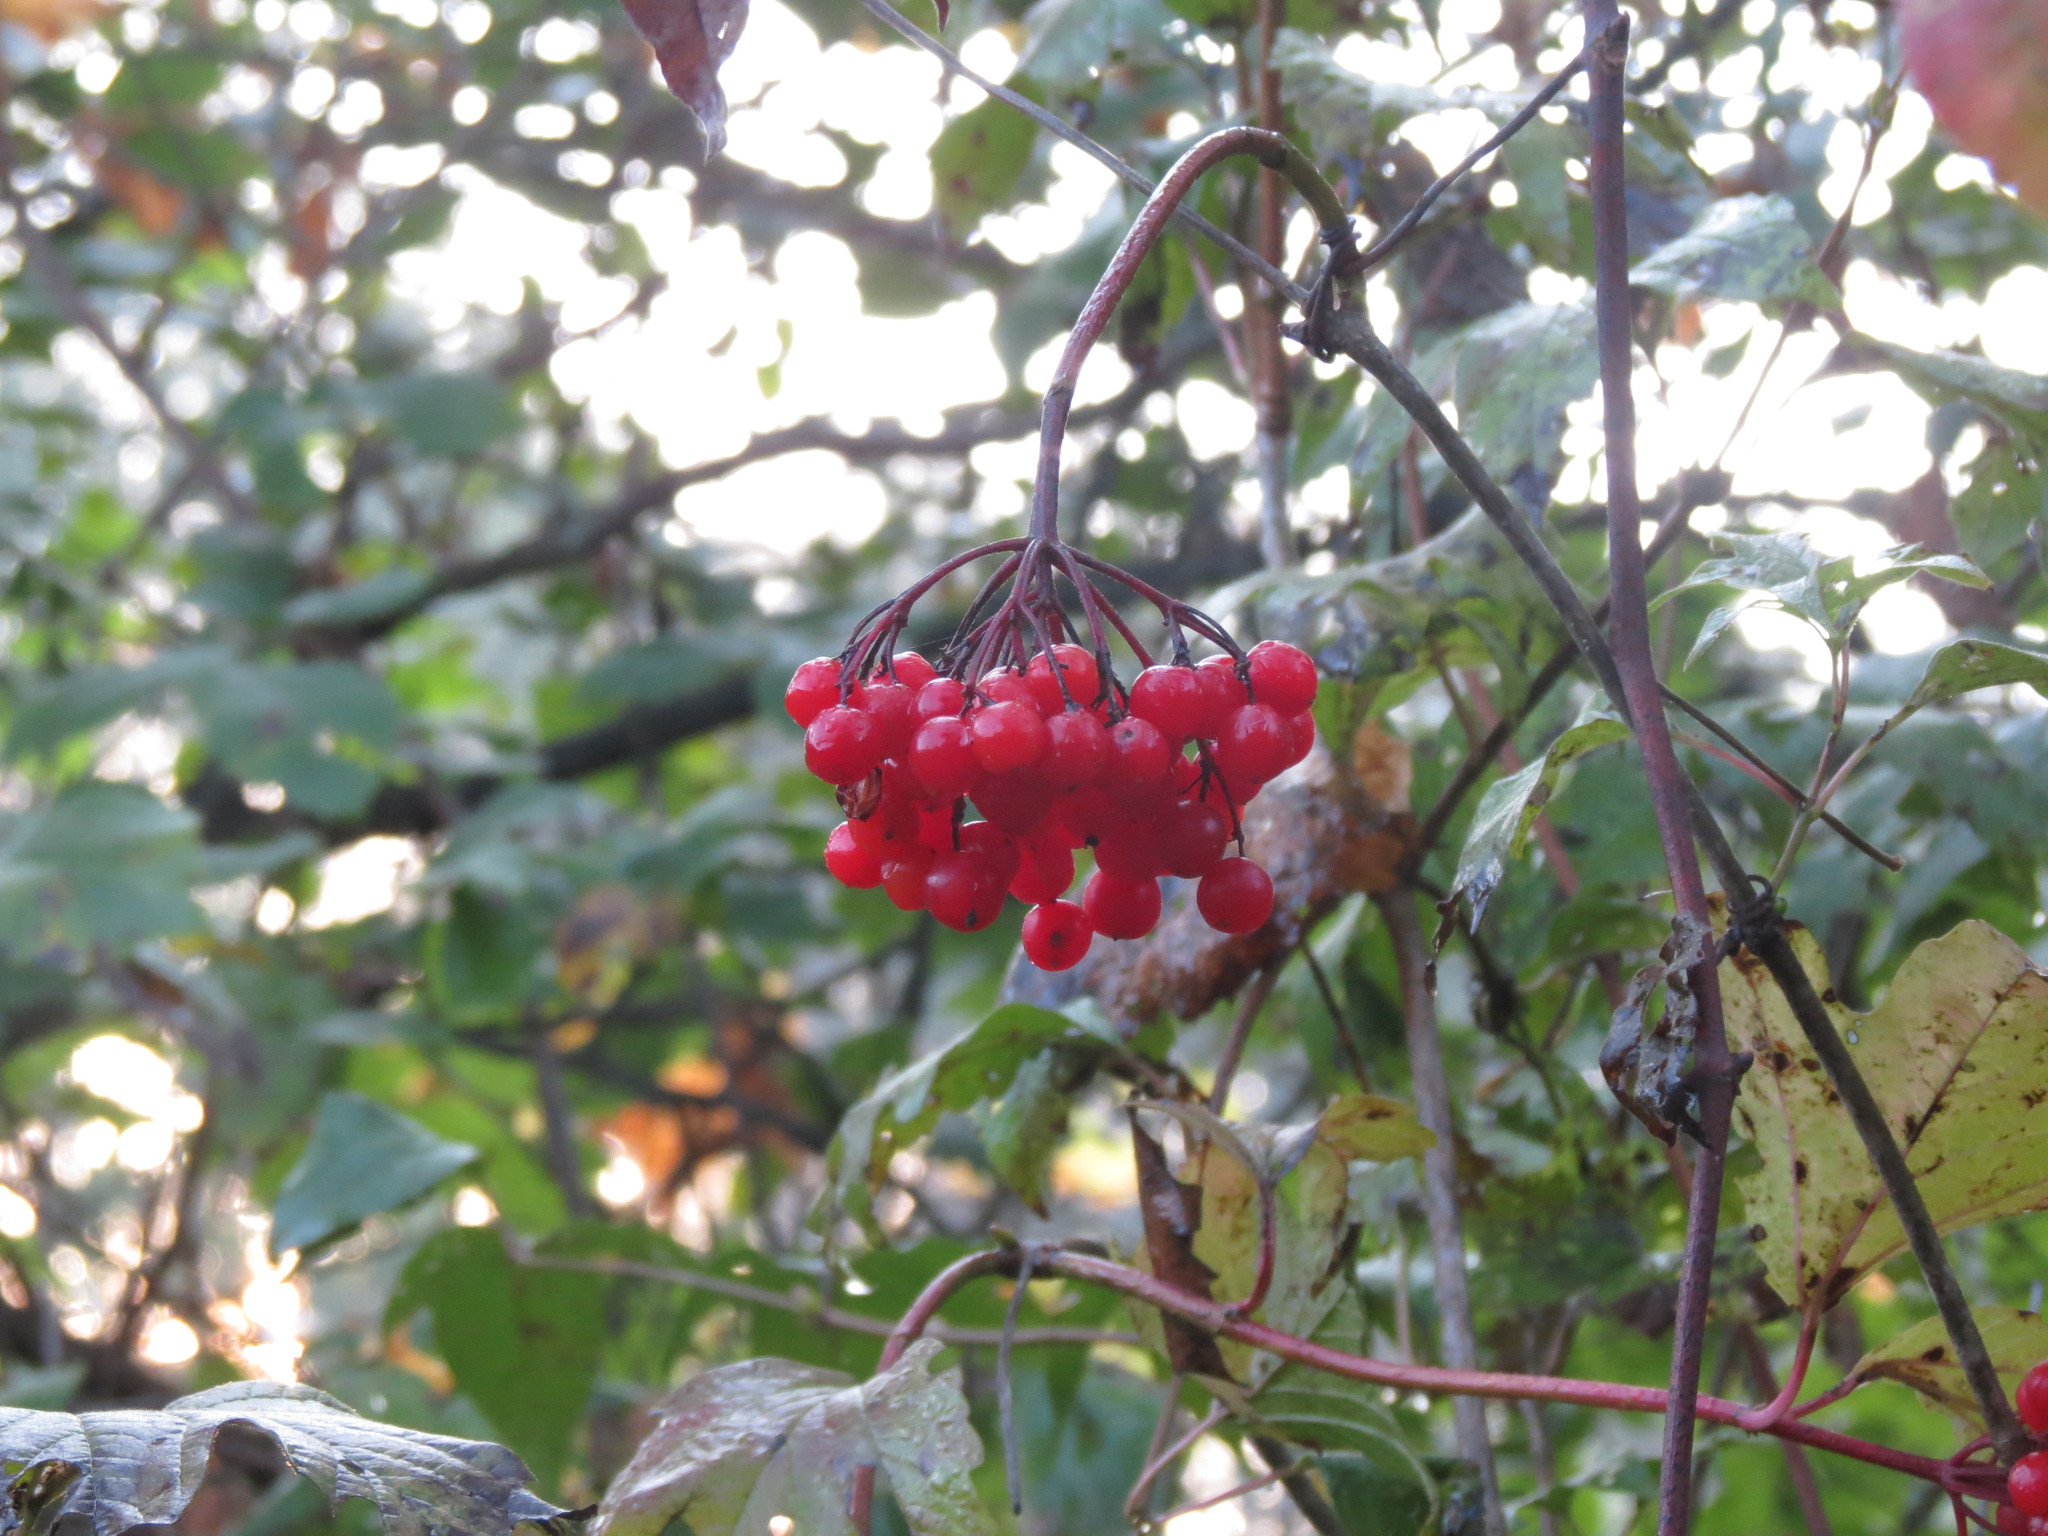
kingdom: Plantae
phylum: Tracheophyta
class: Magnoliopsida
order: Dipsacales
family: Viburnaceae
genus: Viburnum
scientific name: Viburnum trilobum
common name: American cranberrybush
